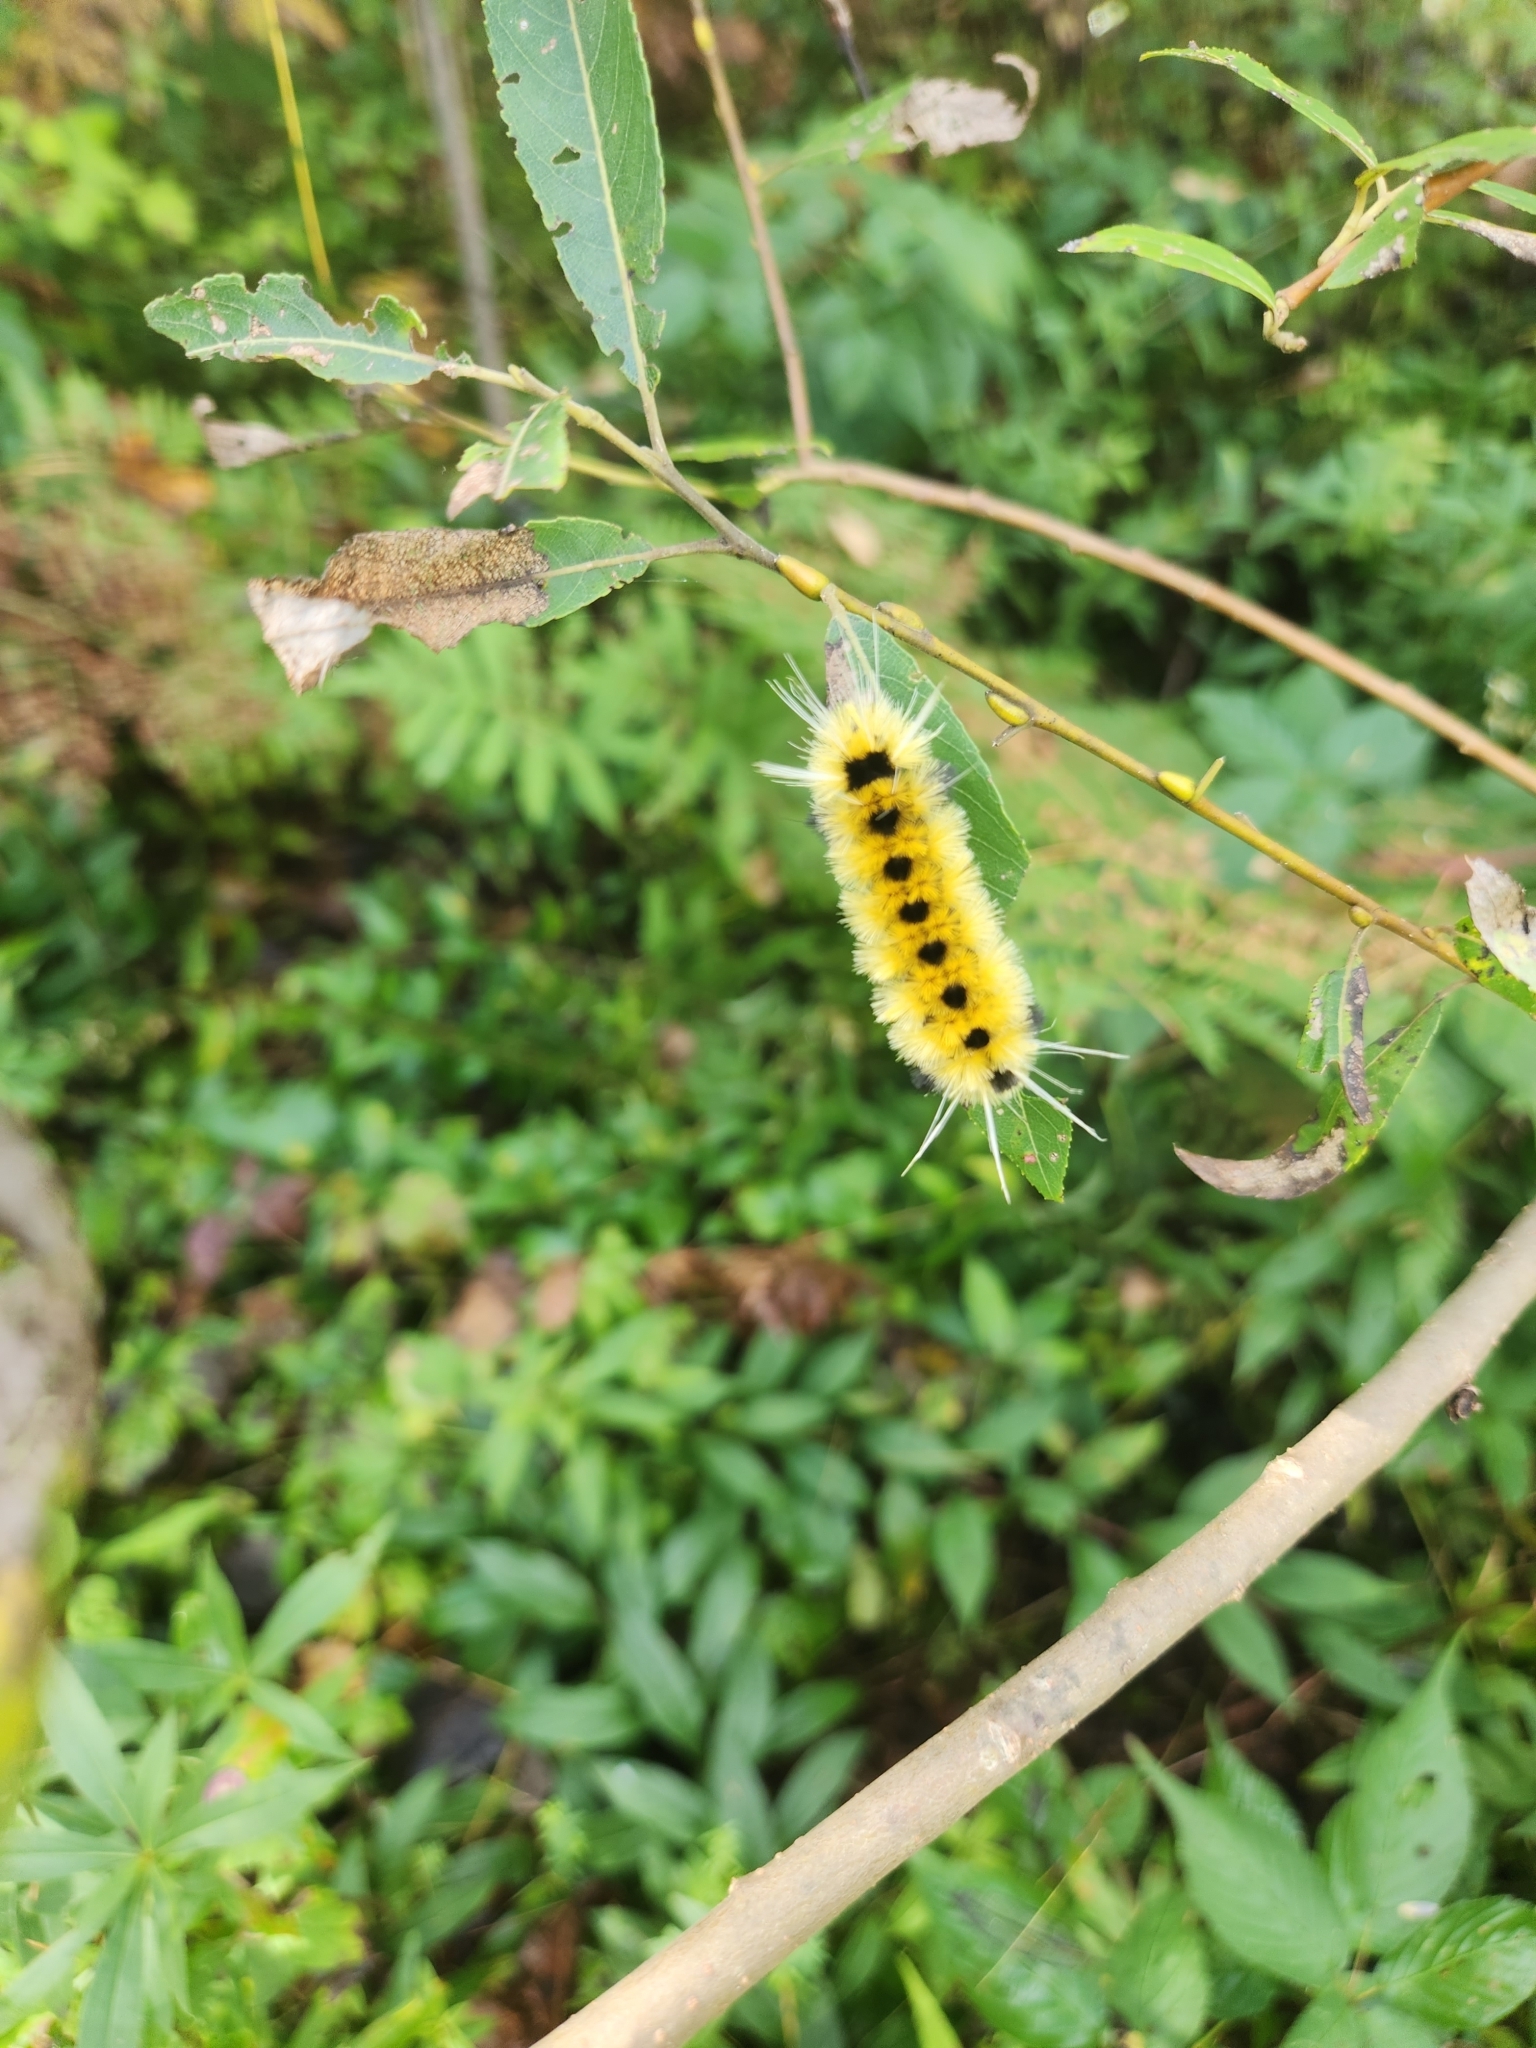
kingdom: Animalia
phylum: Arthropoda
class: Insecta
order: Lepidoptera
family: Erebidae
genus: Lophocampa
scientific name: Lophocampa maculata
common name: Spotted tussock moth
